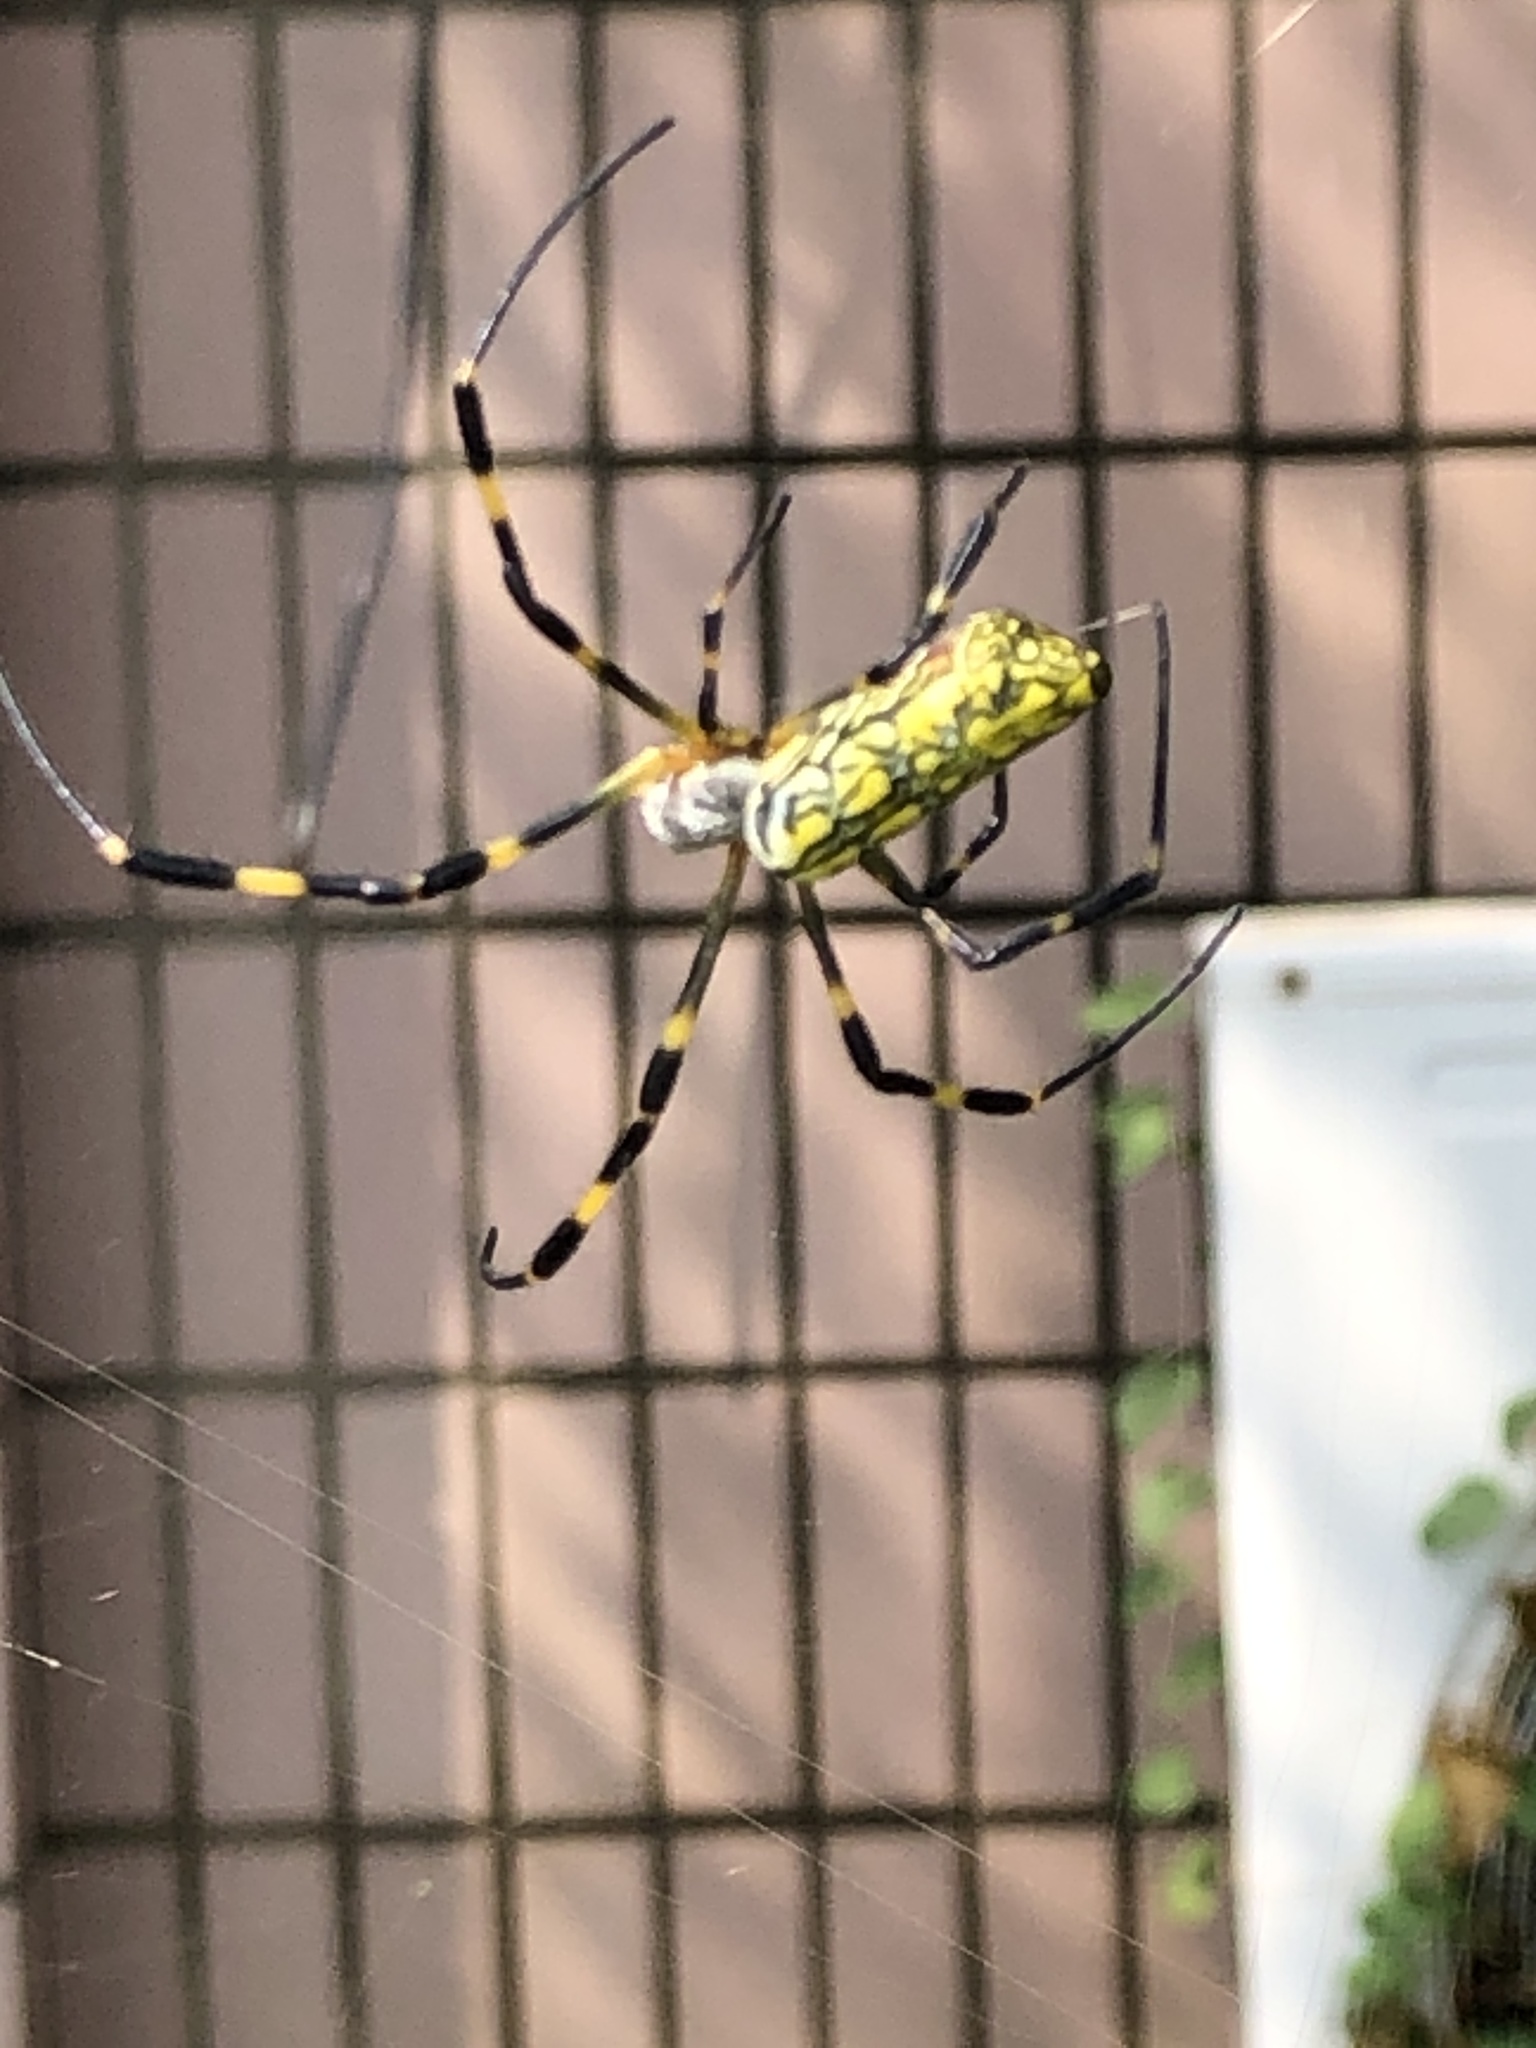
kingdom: Animalia
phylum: Arthropoda
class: Arachnida
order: Araneae
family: Araneidae
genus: Trichonephila
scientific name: Trichonephila clavata
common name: Jorō spider
